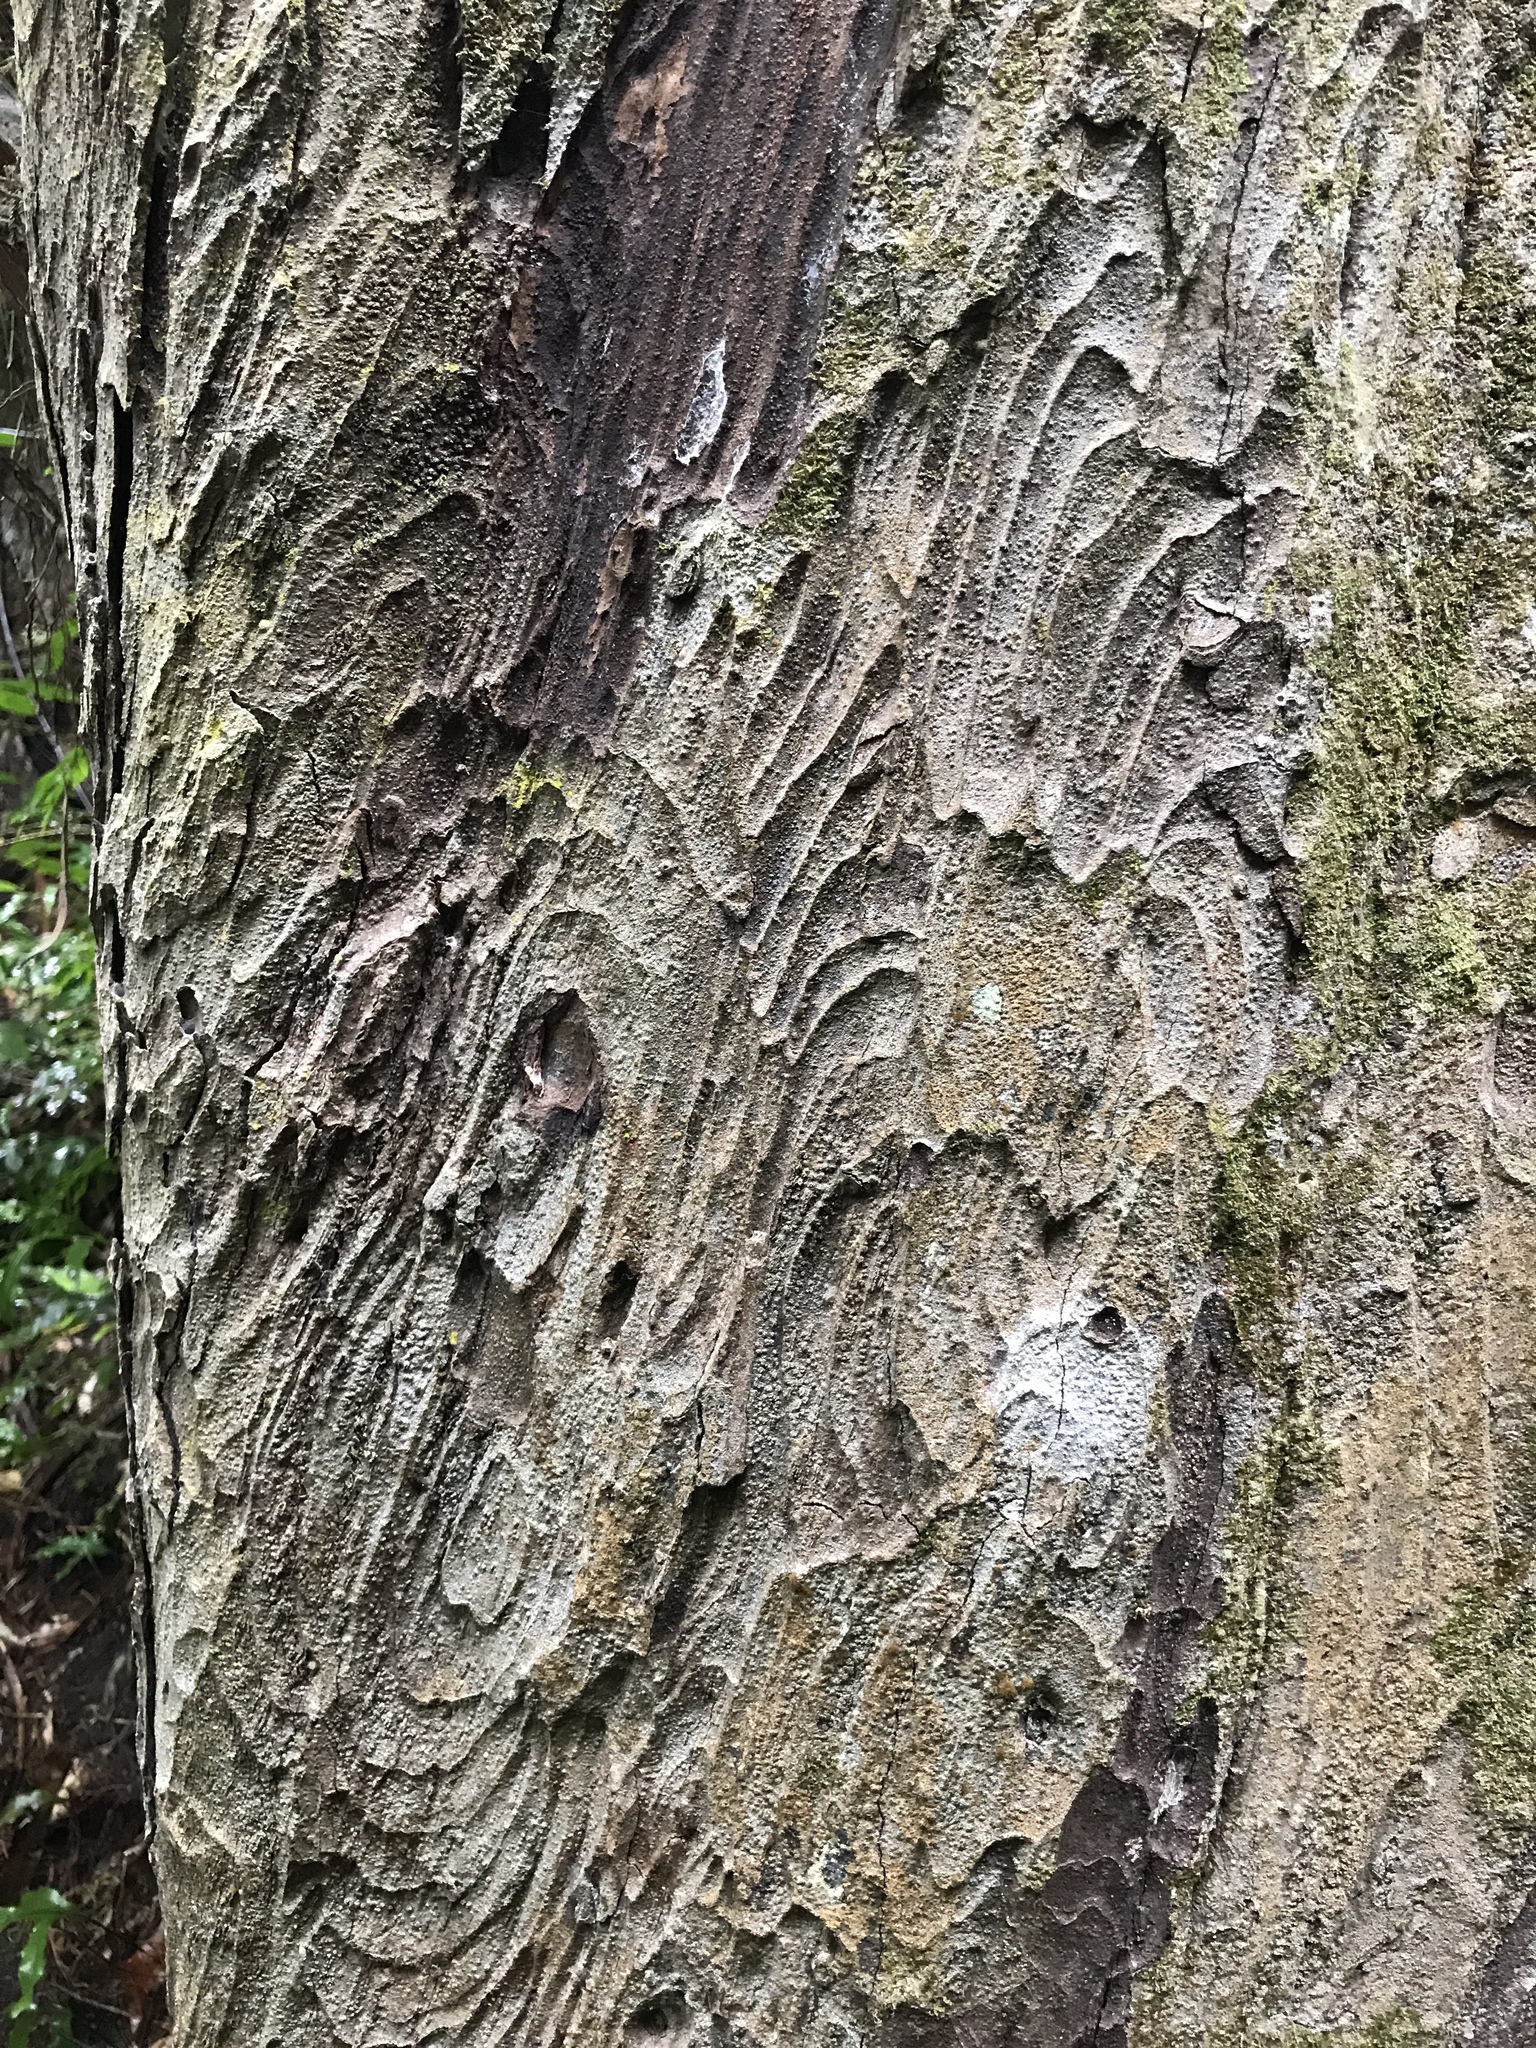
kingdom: Plantae
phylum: Tracheophyta
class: Pinopsida
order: Pinales
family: Podocarpaceae
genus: Dacrydium
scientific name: Dacrydium cupressinum
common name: Red pine
